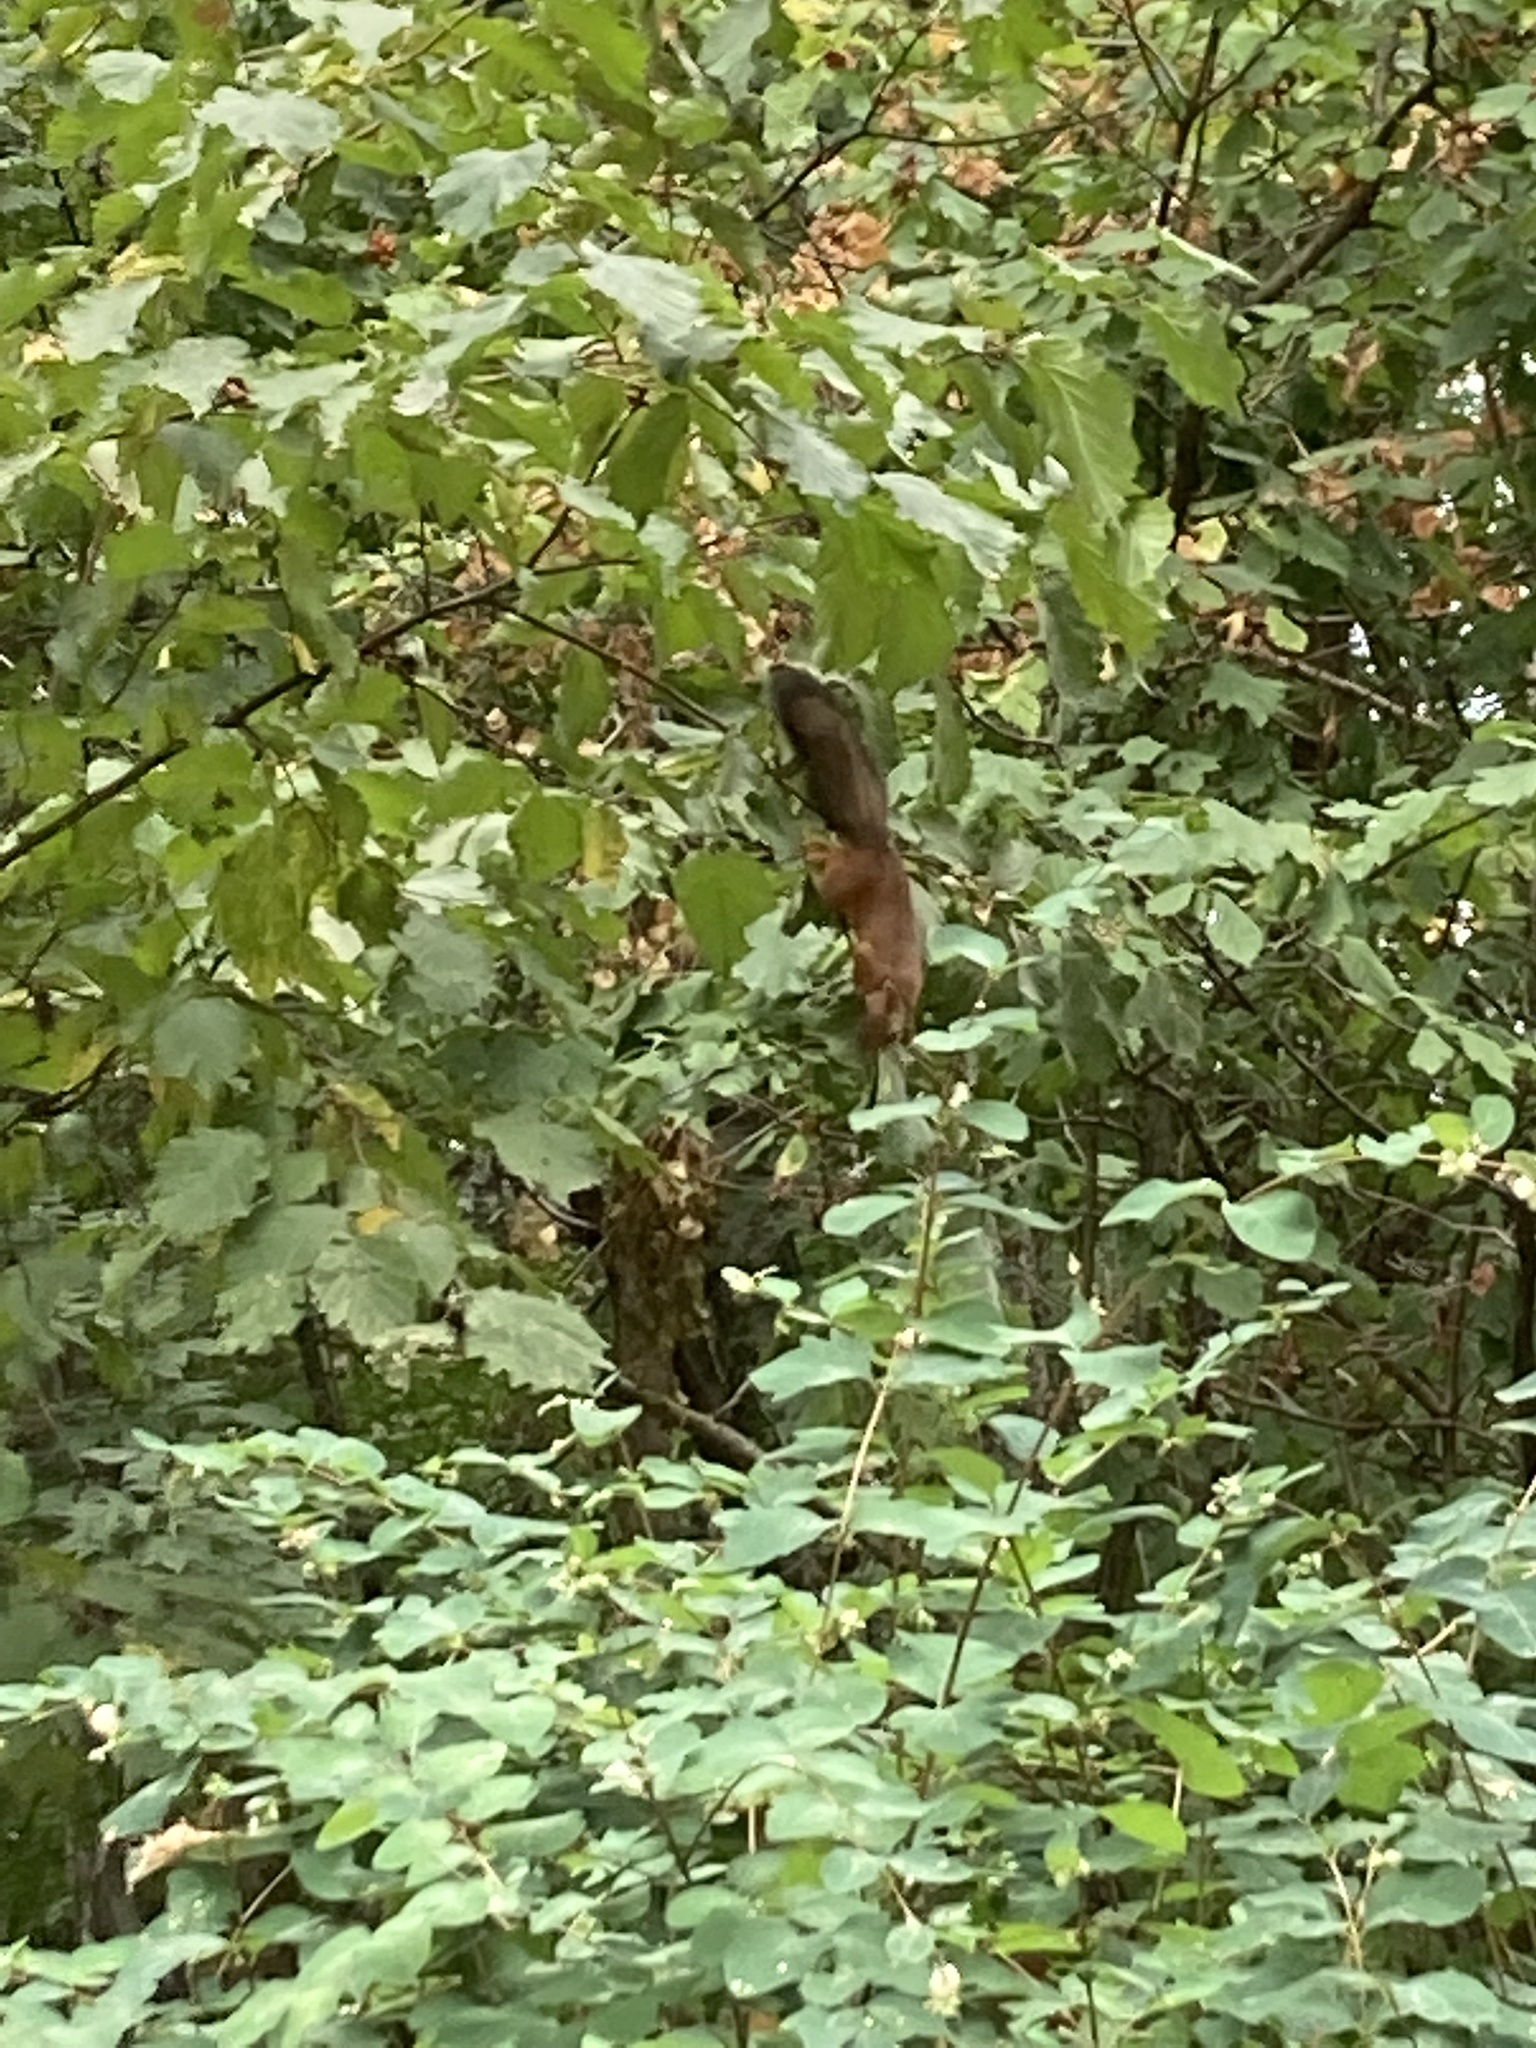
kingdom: Animalia
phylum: Chordata
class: Mammalia
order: Rodentia
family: Sciuridae
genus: Sciurus
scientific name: Sciurus vulgaris
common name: Eurasian red squirrel
